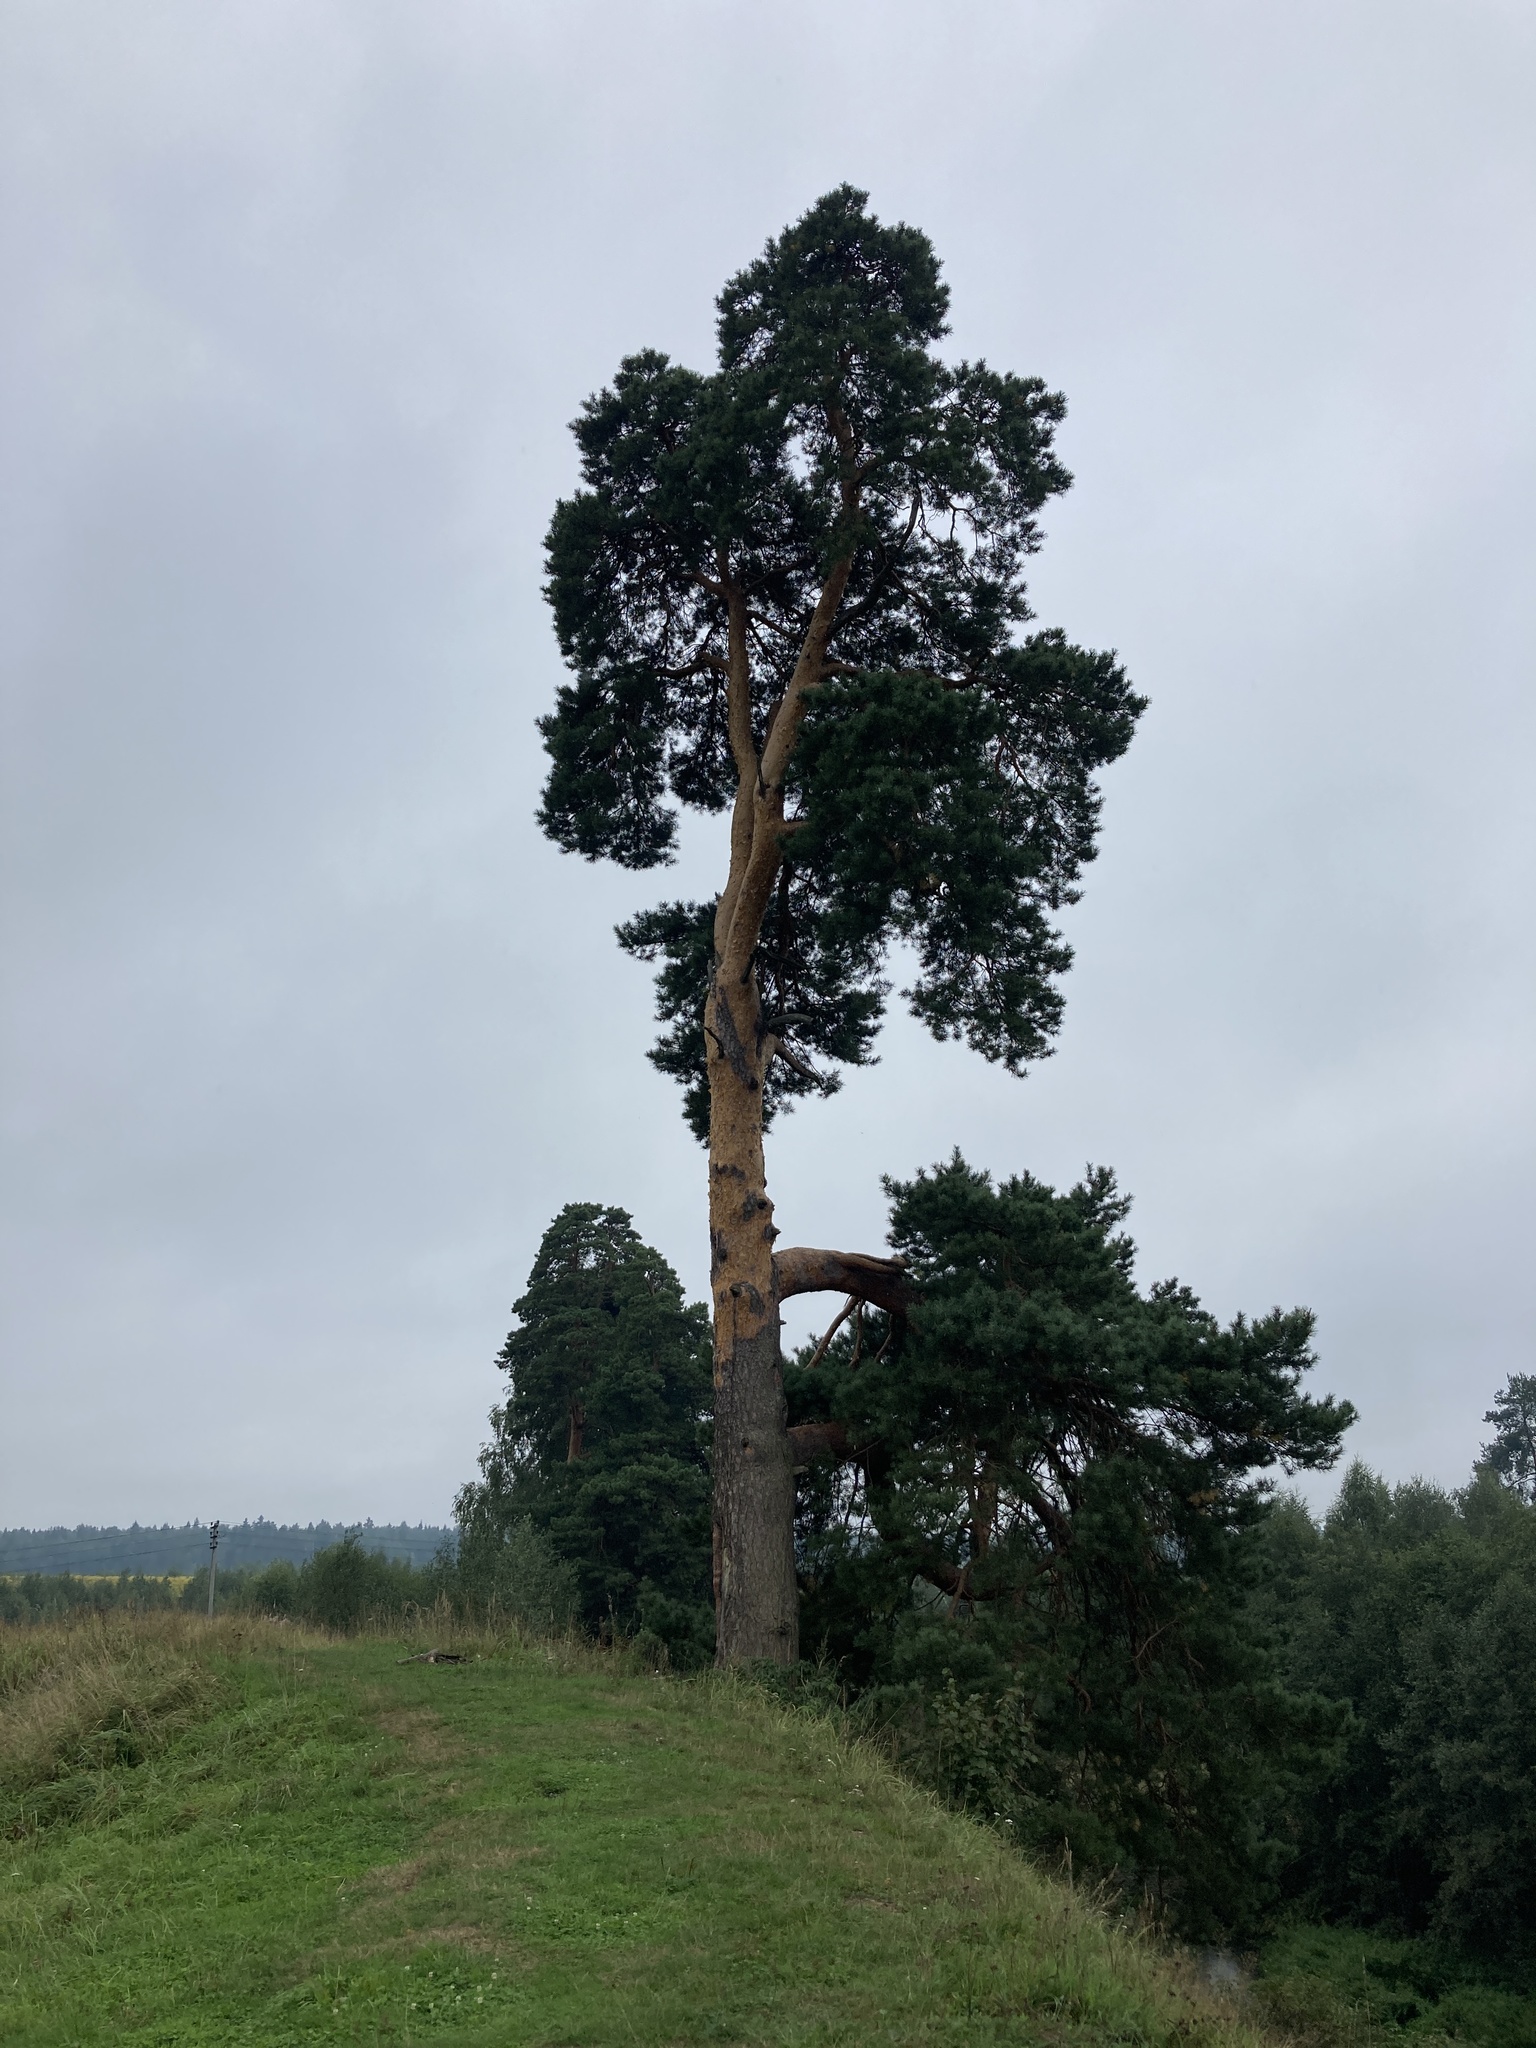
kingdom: Plantae
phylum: Tracheophyta
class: Pinopsida
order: Pinales
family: Pinaceae
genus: Pinus
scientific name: Pinus sylvestris
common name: Scots pine
